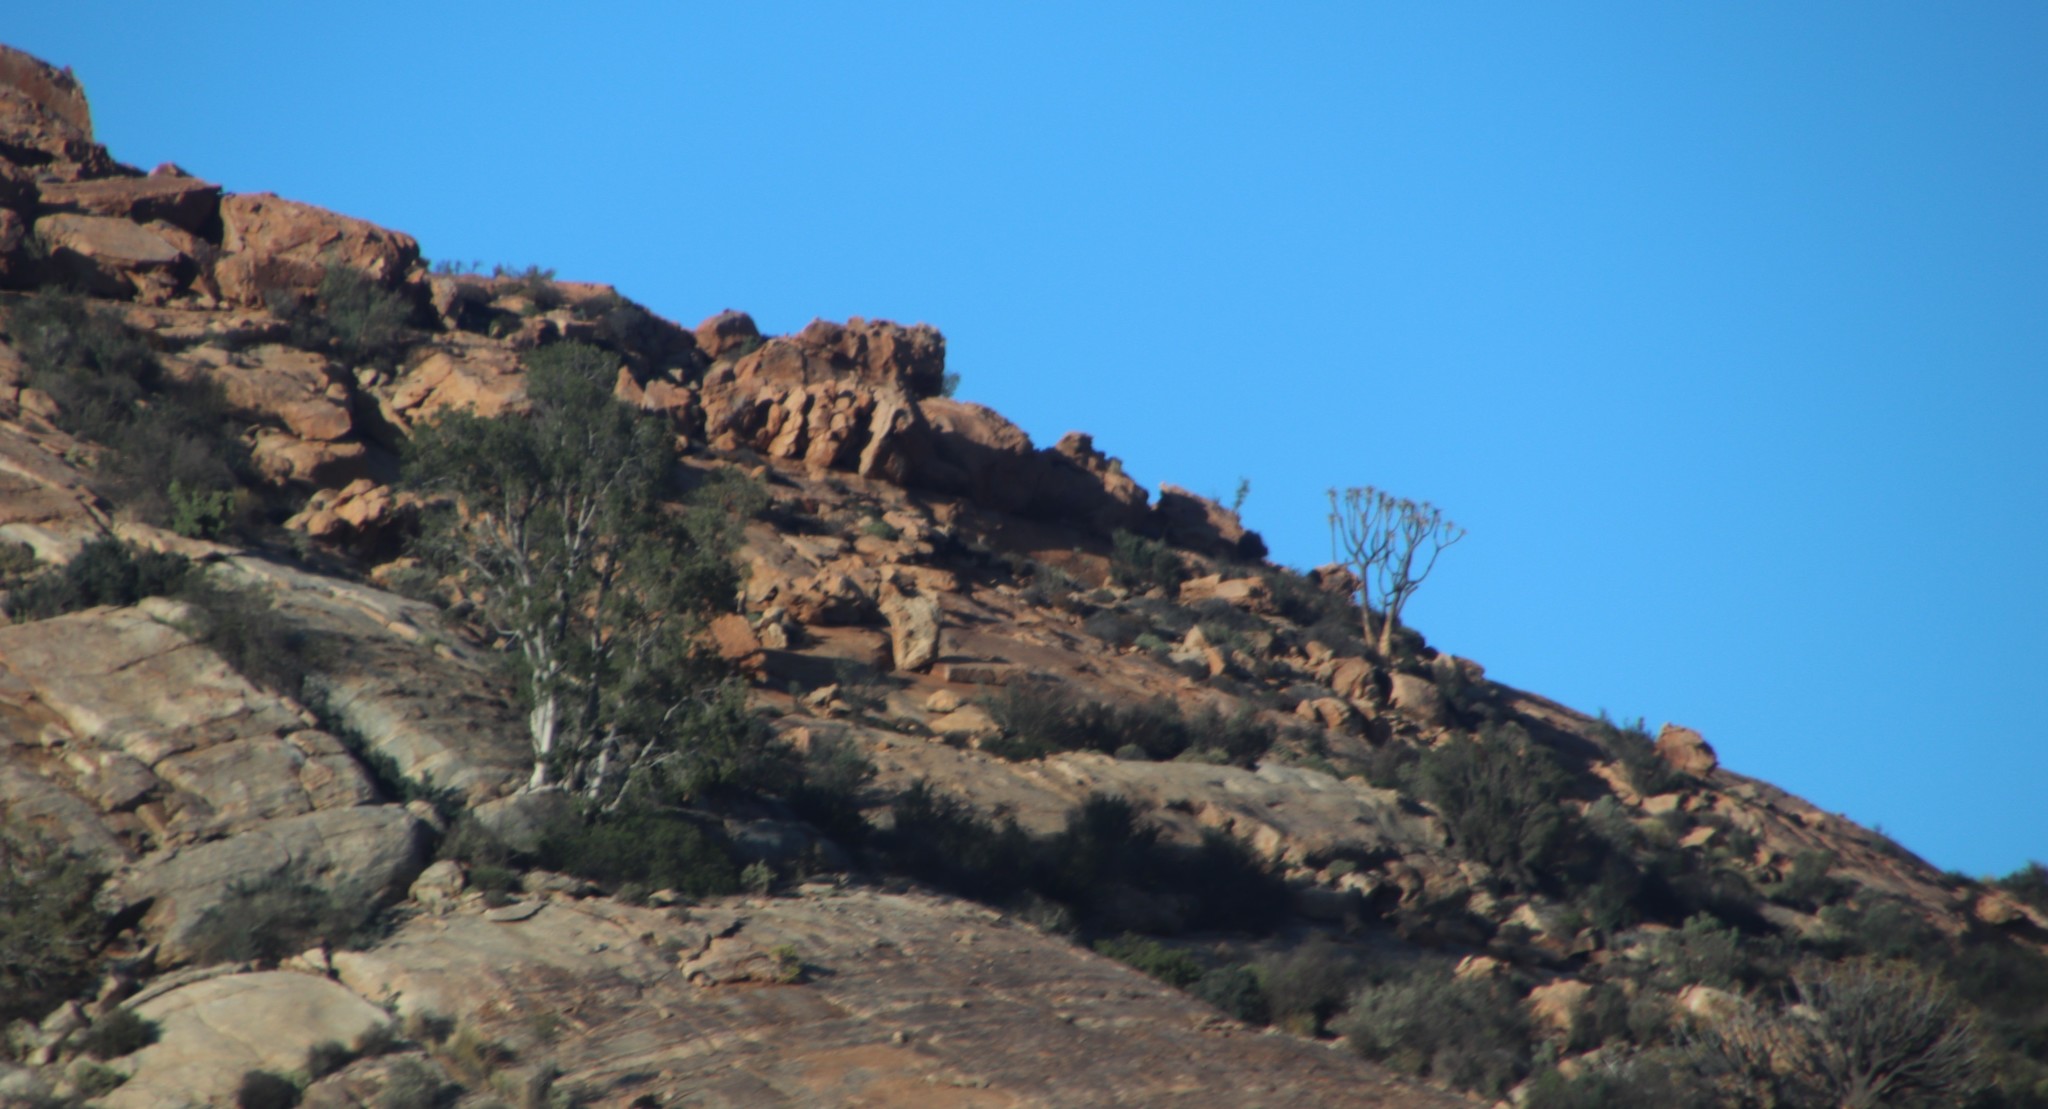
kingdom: Plantae
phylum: Tracheophyta
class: Liliopsida
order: Asparagales
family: Asphodelaceae
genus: Aloidendron
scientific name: Aloidendron dichotomum
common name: Quiver tree
